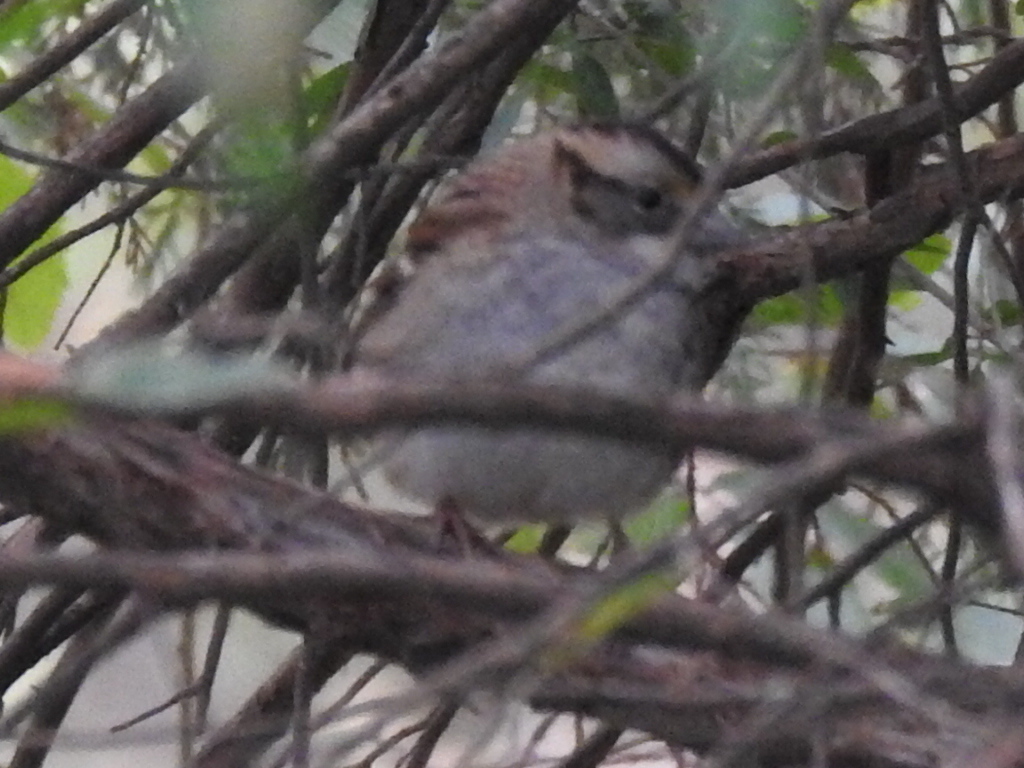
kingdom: Animalia
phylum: Chordata
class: Aves
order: Passeriformes
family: Passerellidae
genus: Zonotrichia
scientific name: Zonotrichia albicollis
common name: White-throated sparrow
